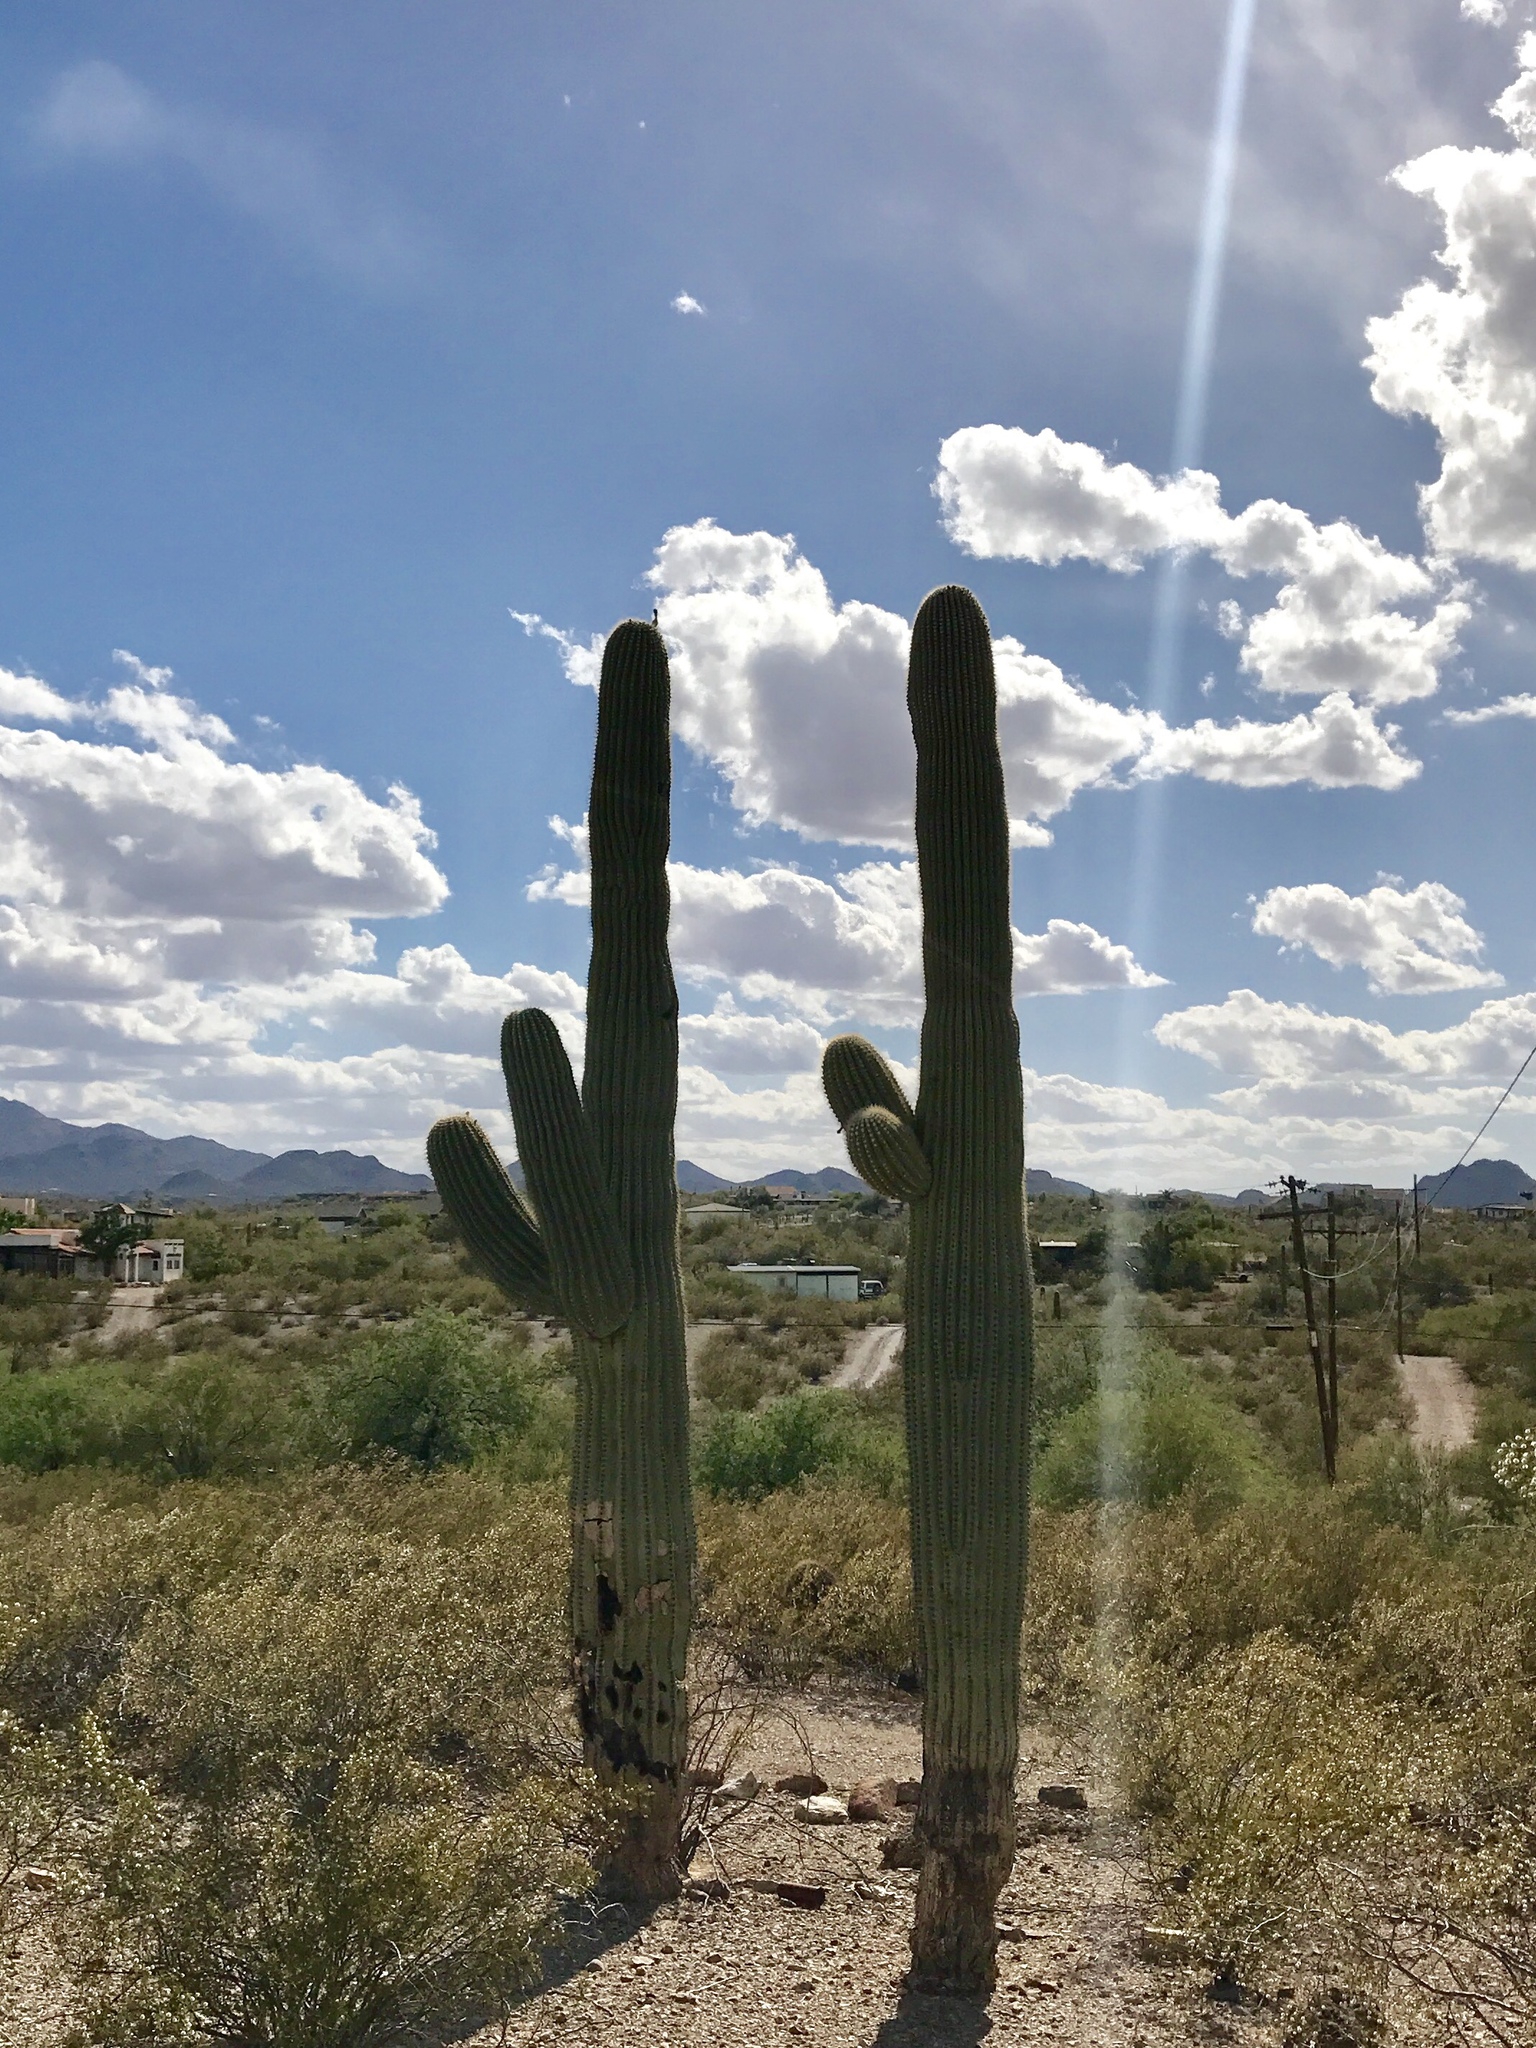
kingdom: Plantae
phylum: Tracheophyta
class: Magnoliopsida
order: Caryophyllales
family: Cactaceae
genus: Carnegiea
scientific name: Carnegiea gigantea
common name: Saguaro
